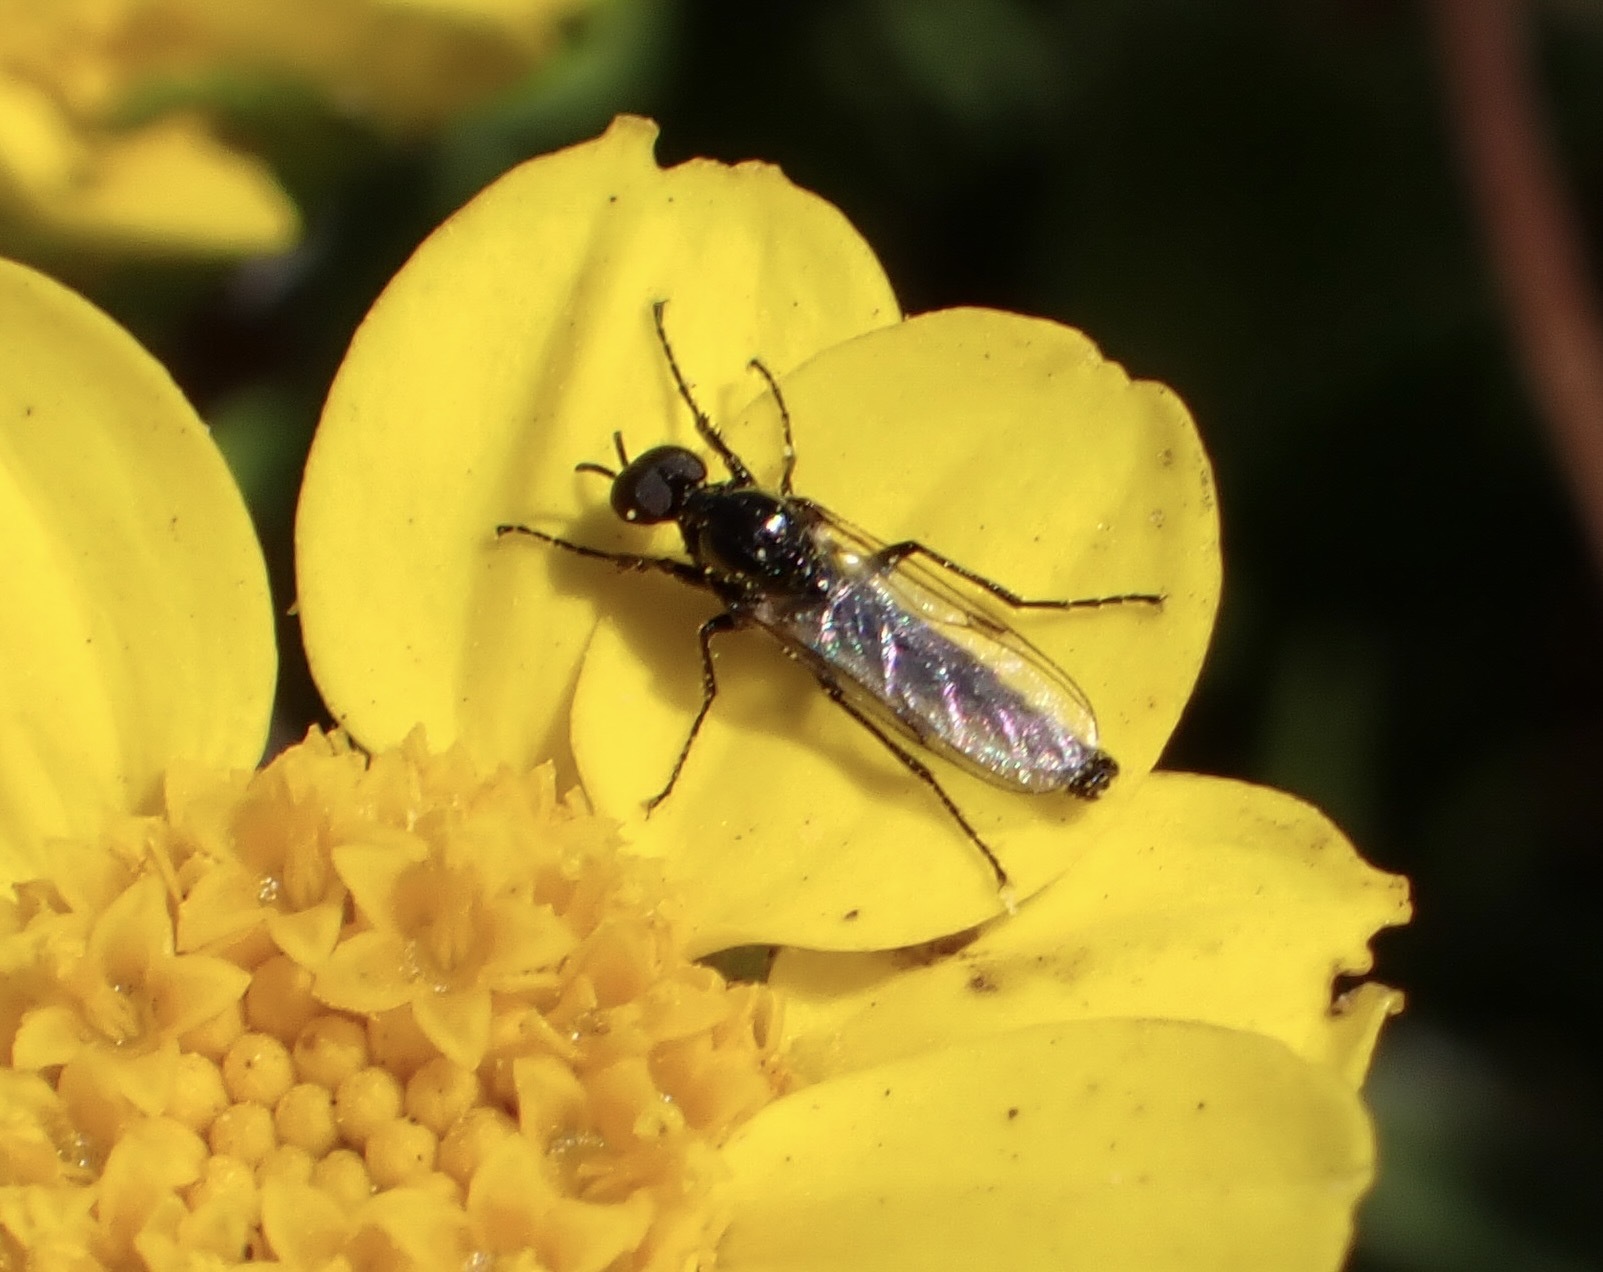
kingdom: Animalia
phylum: Arthropoda
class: Insecta
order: Diptera
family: Bibionidae
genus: Dilophus
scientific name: Dilophus
